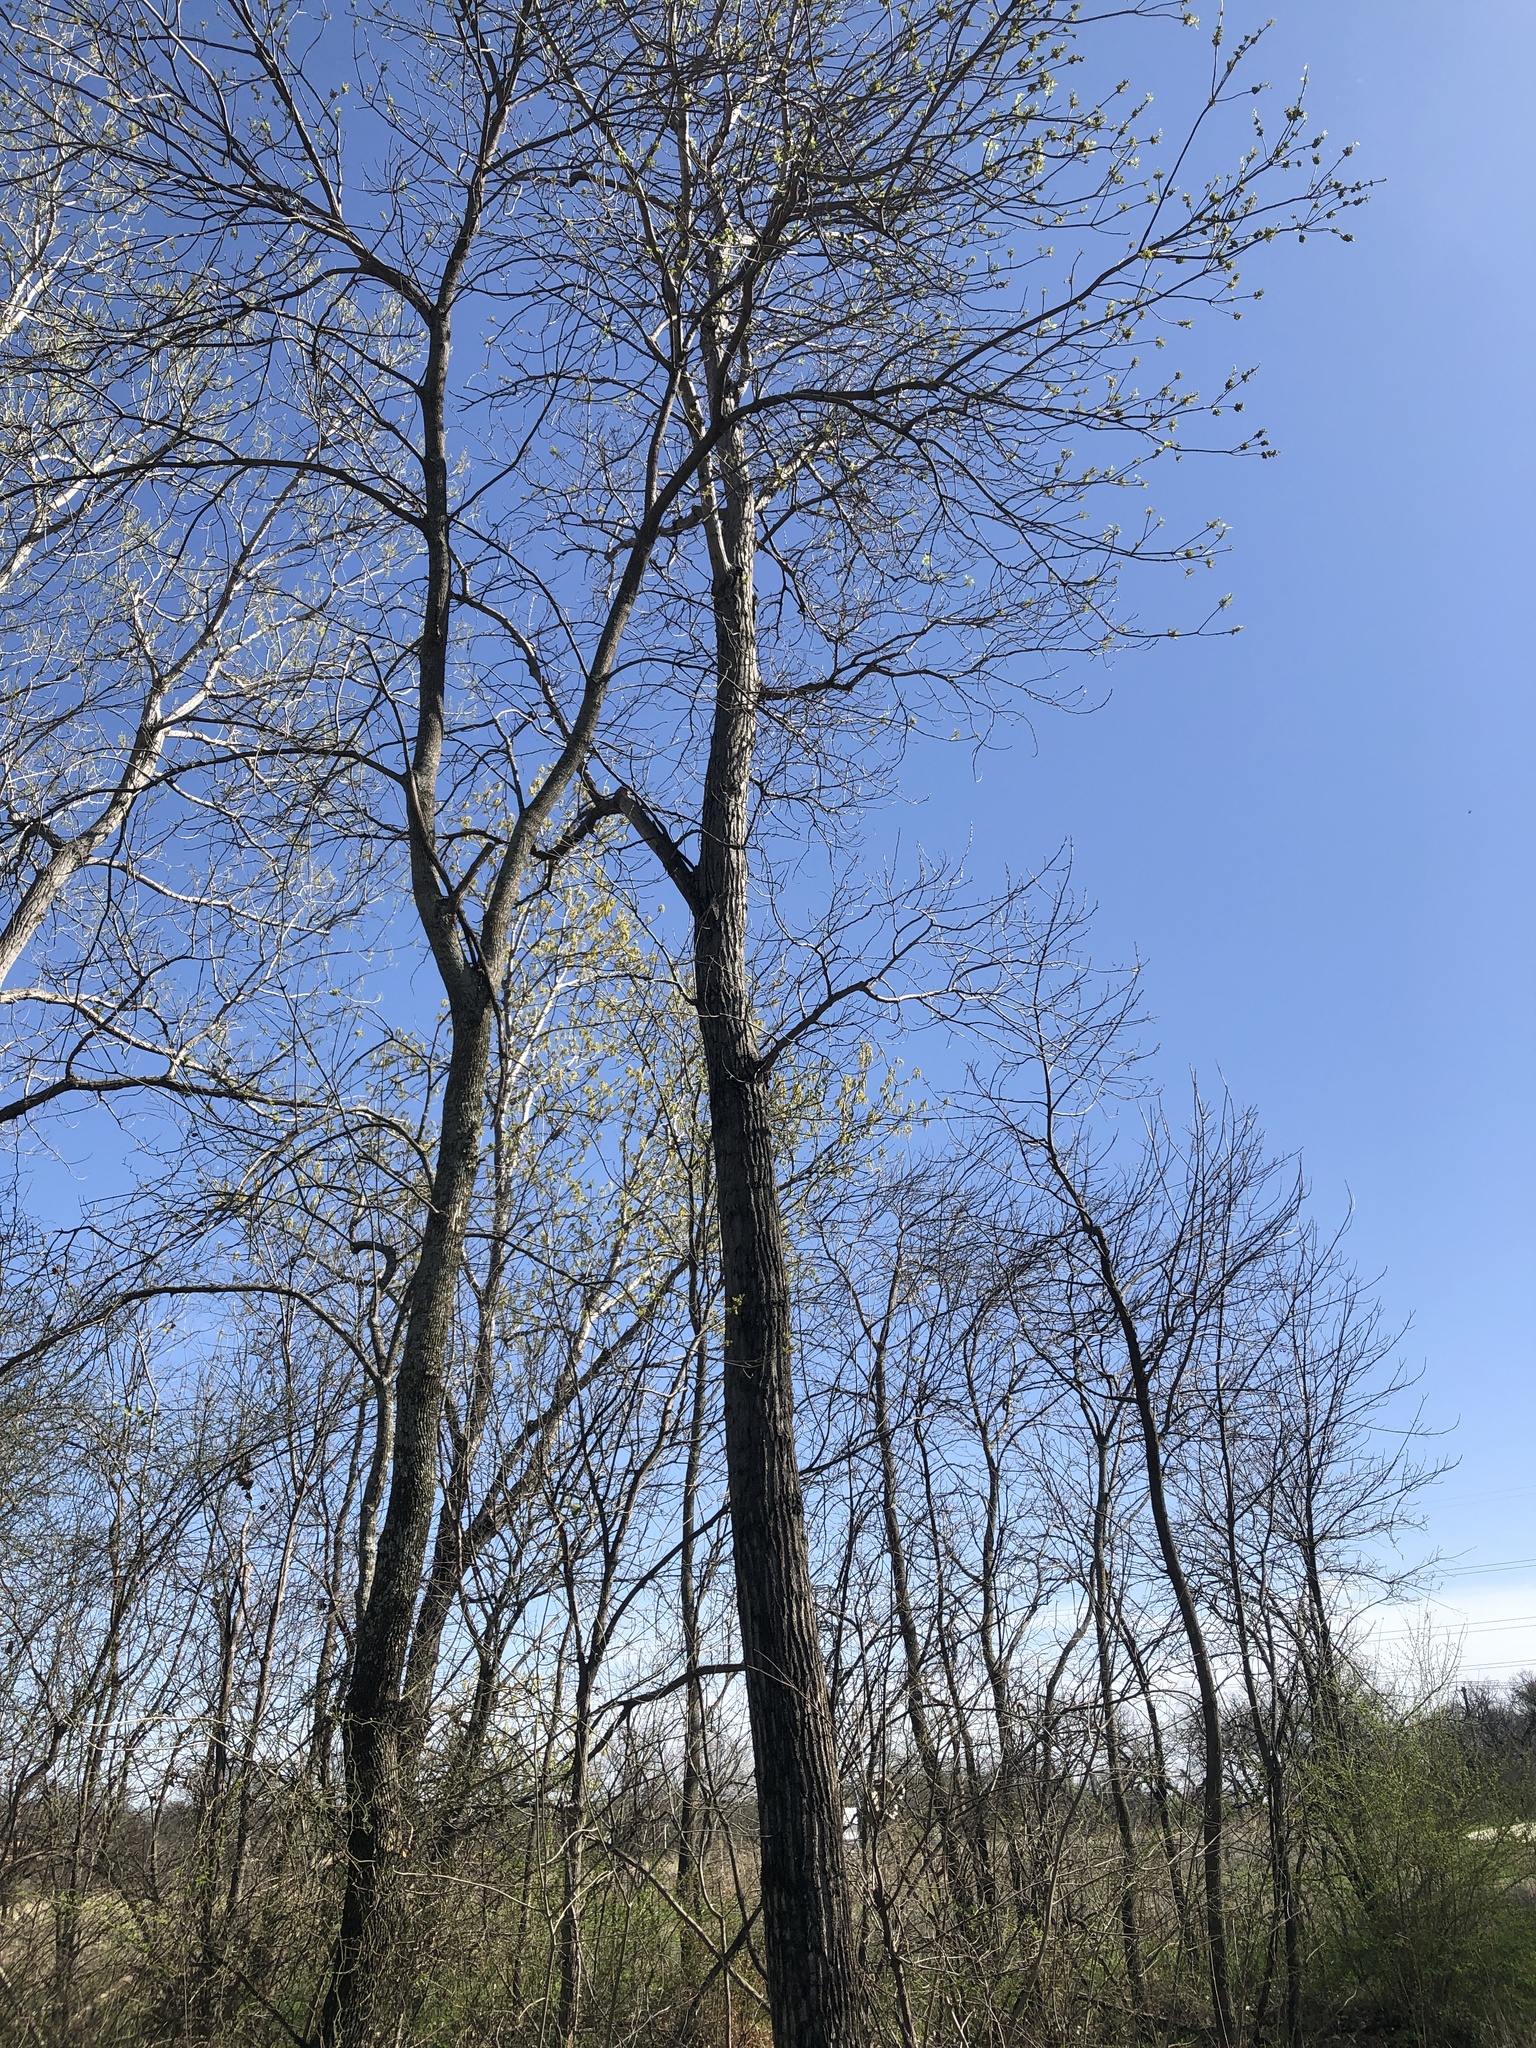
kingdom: Plantae
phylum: Tracheophyta
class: Magnoliopsida
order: Malpighiales
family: Salicaceae
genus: Populus
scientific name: Populus deltoides
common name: Eastern cottonwood
